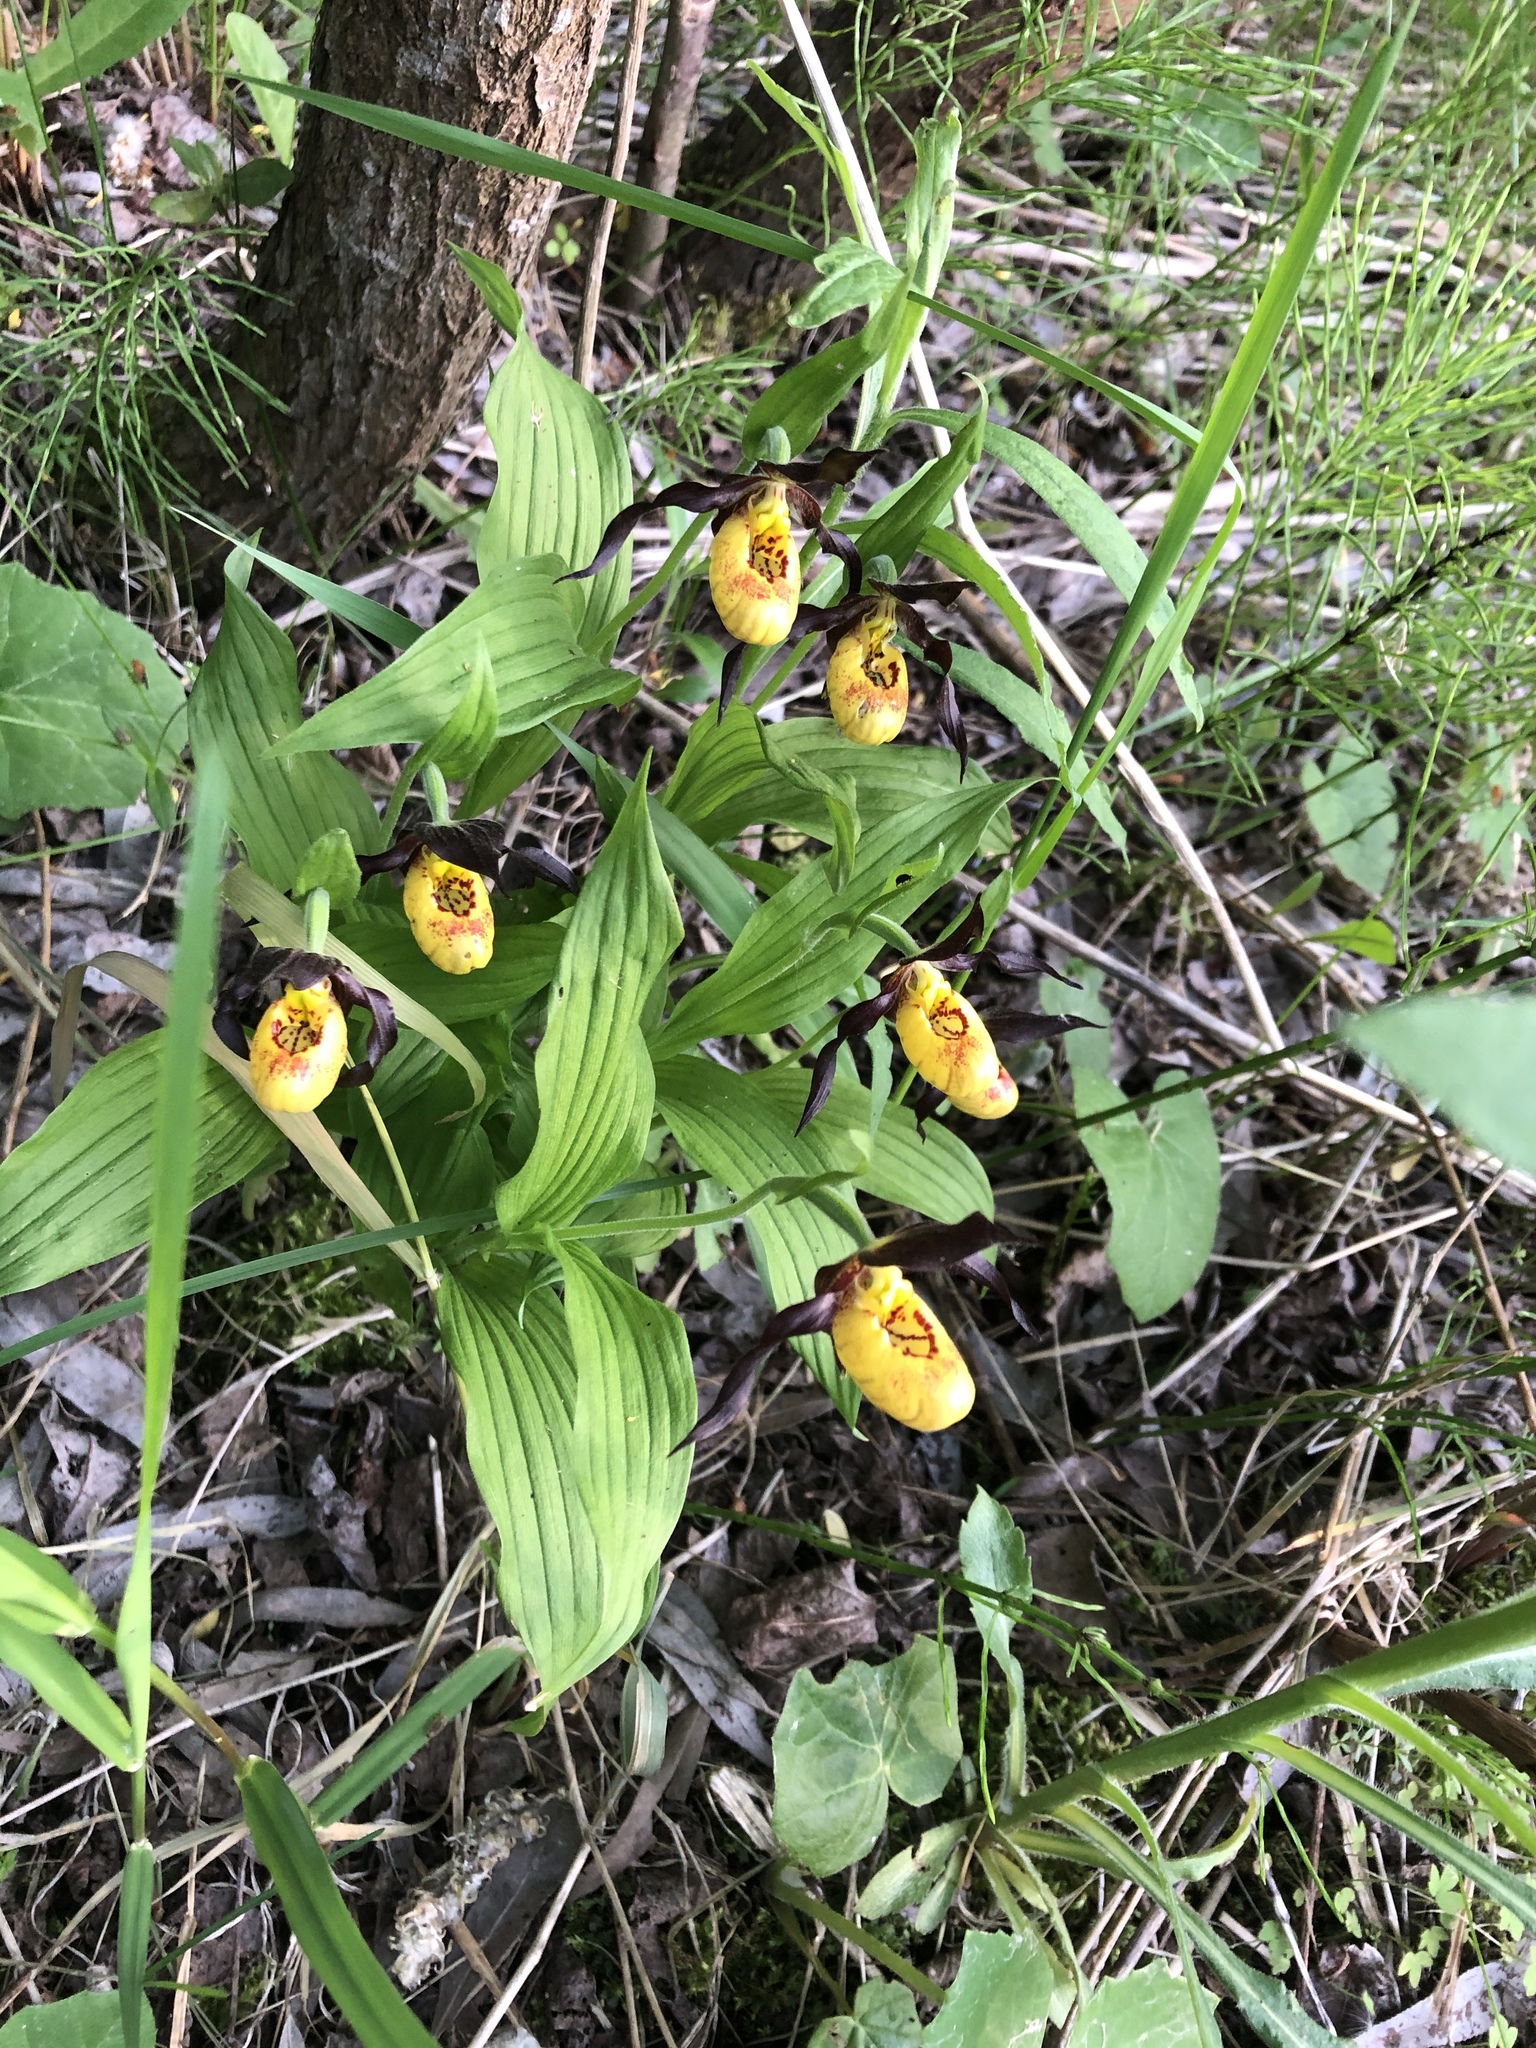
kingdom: Plantae
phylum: Tracheophyta
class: Liliopsida
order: Asparagales
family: Orchidaceae
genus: Cypripedium
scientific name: Cypripedium parviflorum
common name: American yellow lady's-slipper
